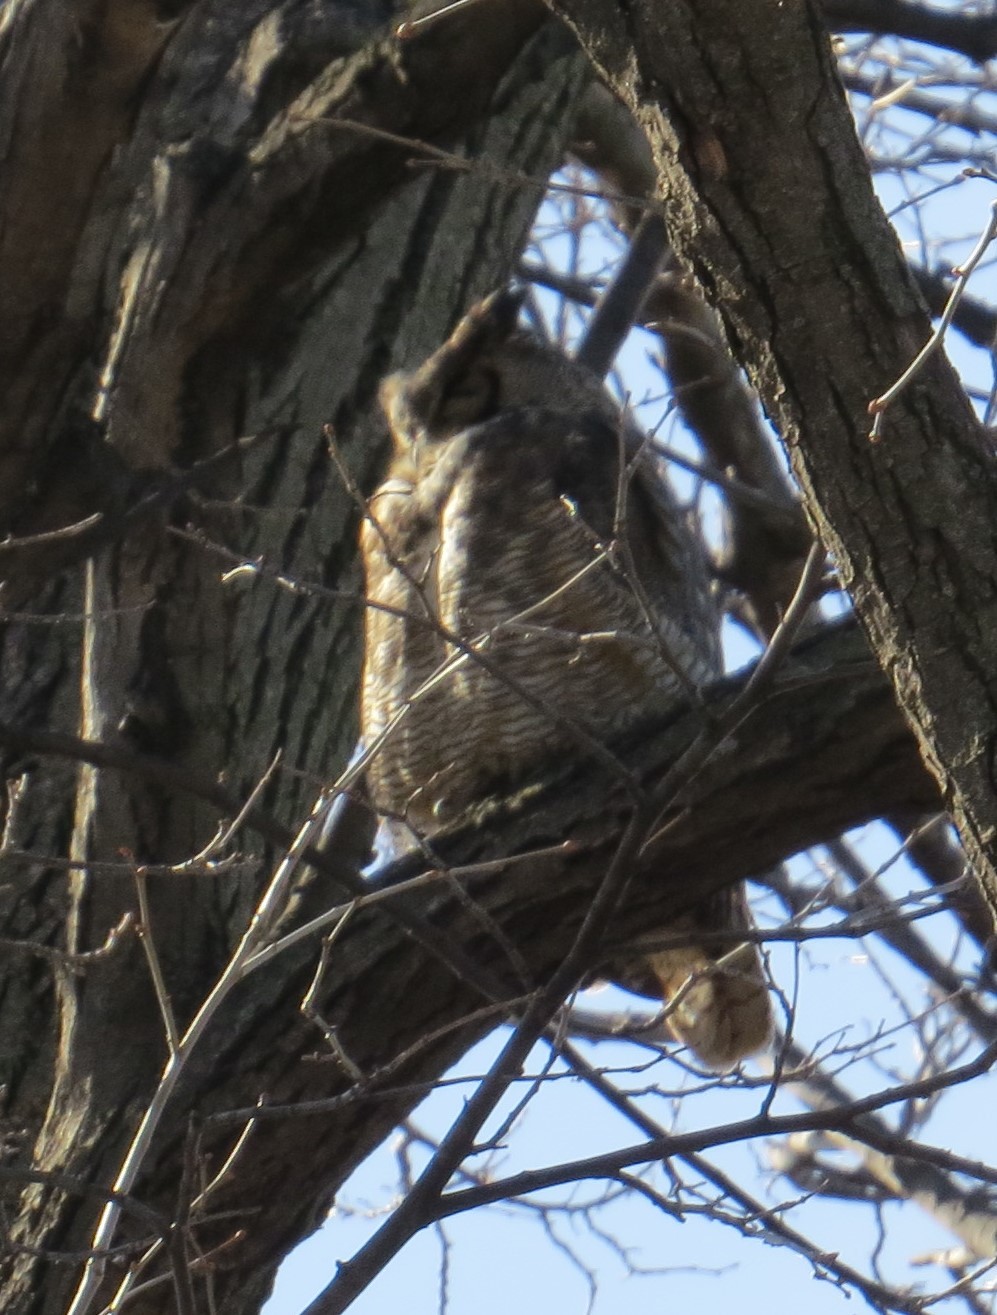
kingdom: Animalia
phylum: Chordata
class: Aves
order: Strigiformes
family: Strigidae
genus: Bubo
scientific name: Bubo virginianus
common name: Great horned owl
